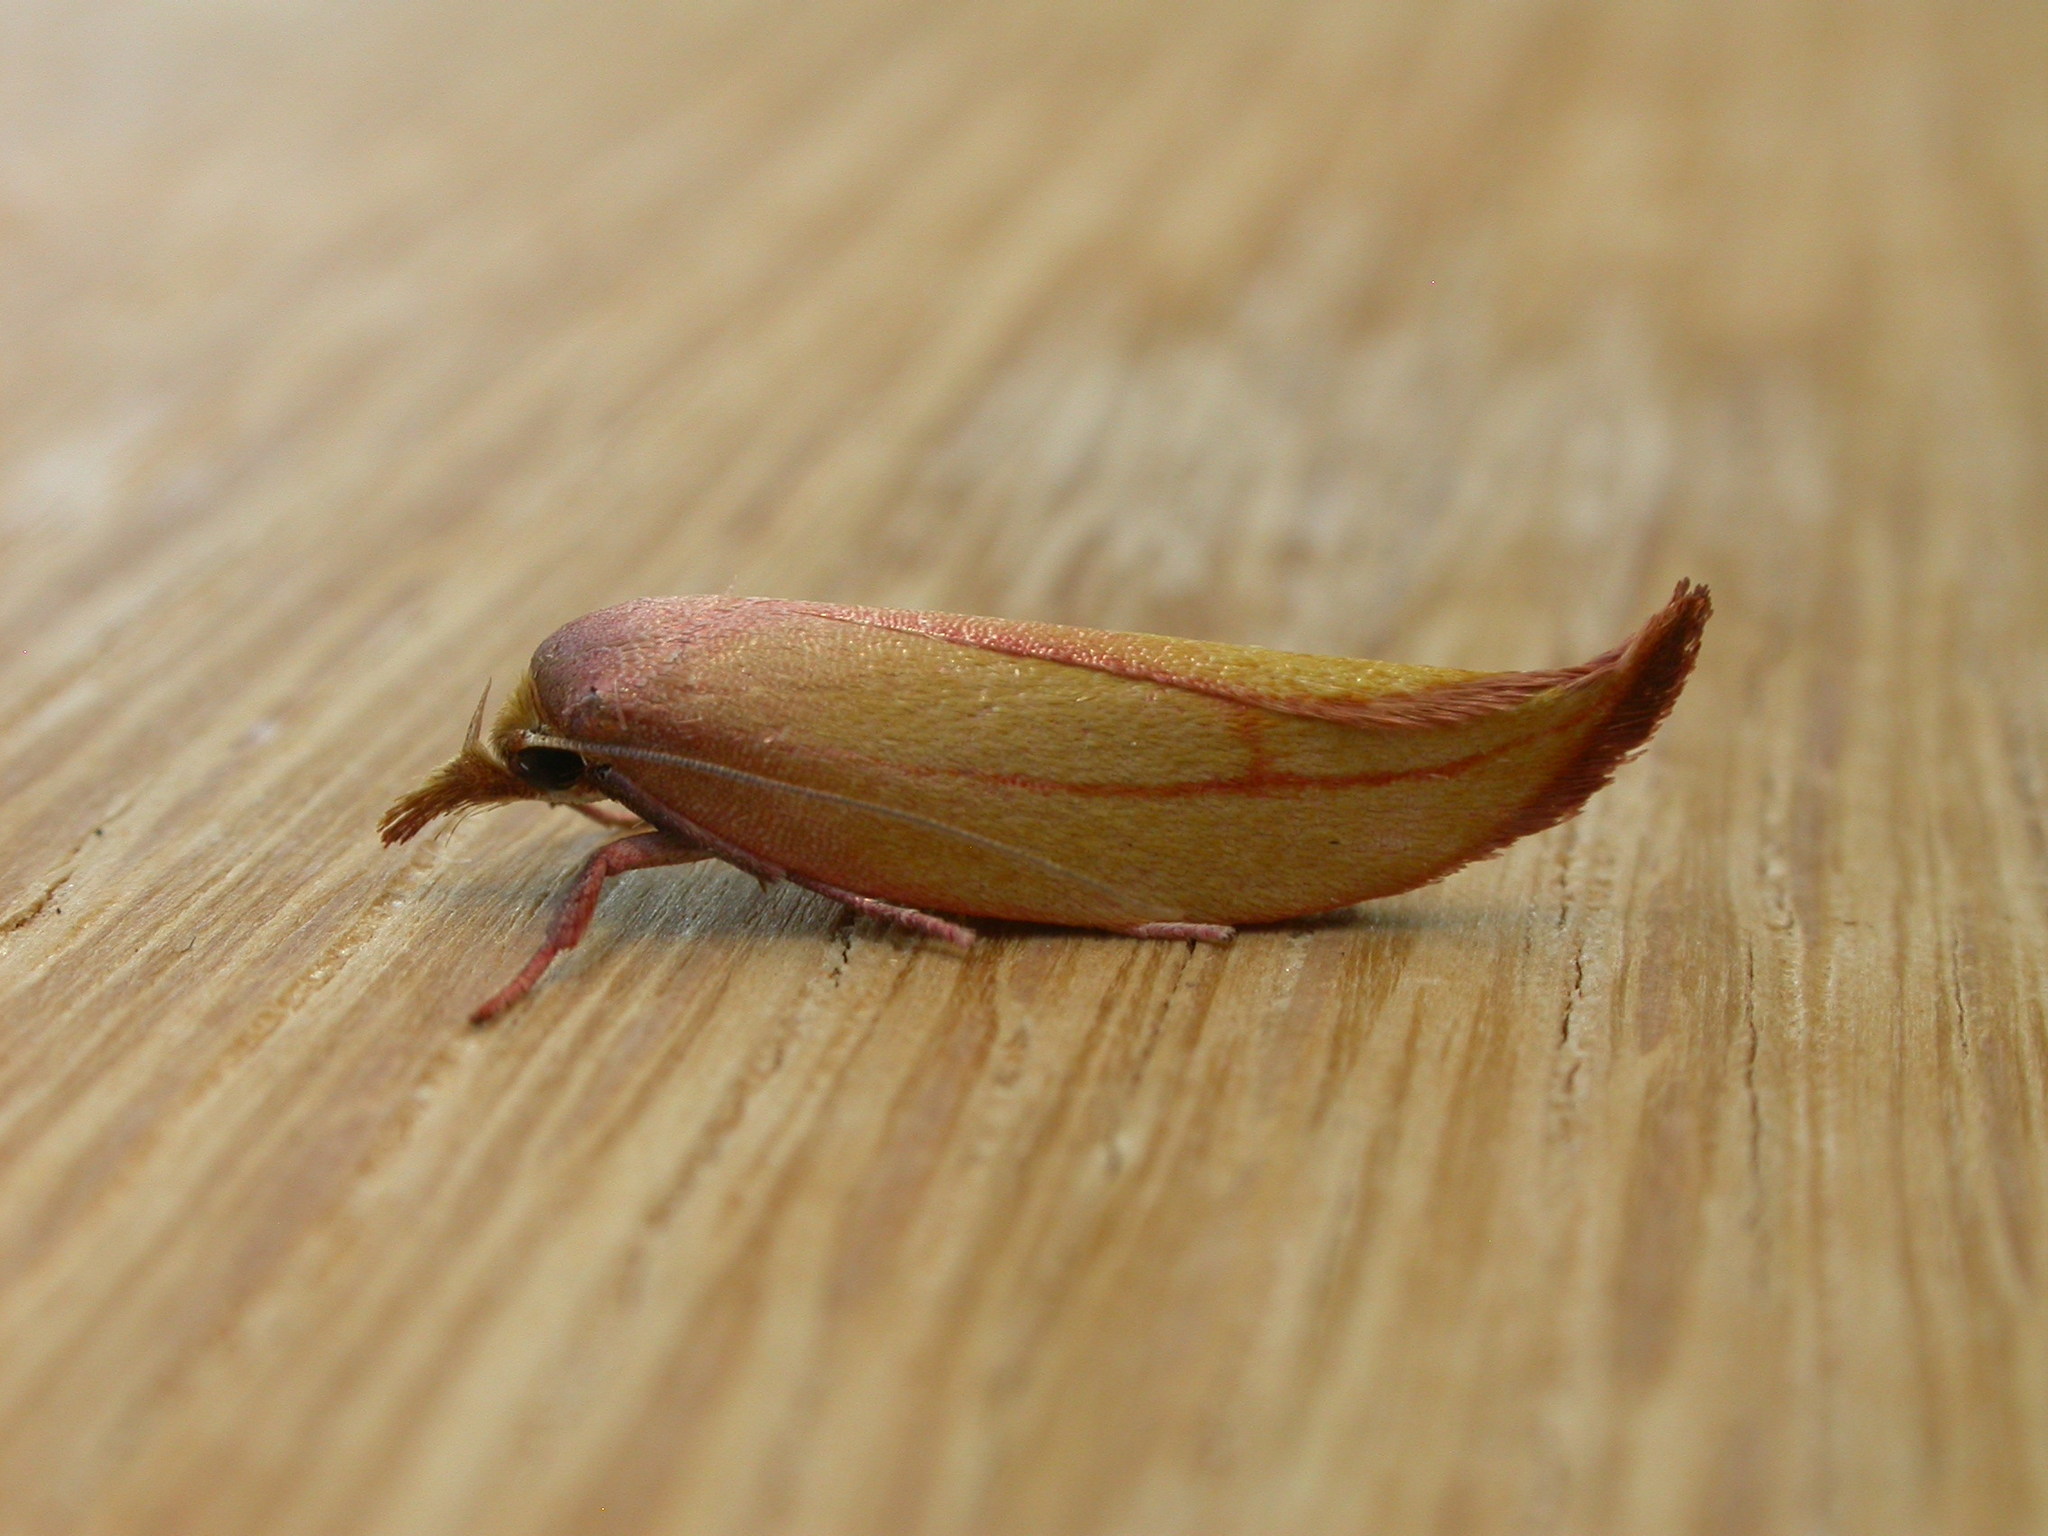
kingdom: Animalia
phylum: Arthropoda
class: Insecta
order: Lepidoptera
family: Oecophoridae
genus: Wingia
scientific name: Wingia aurata
